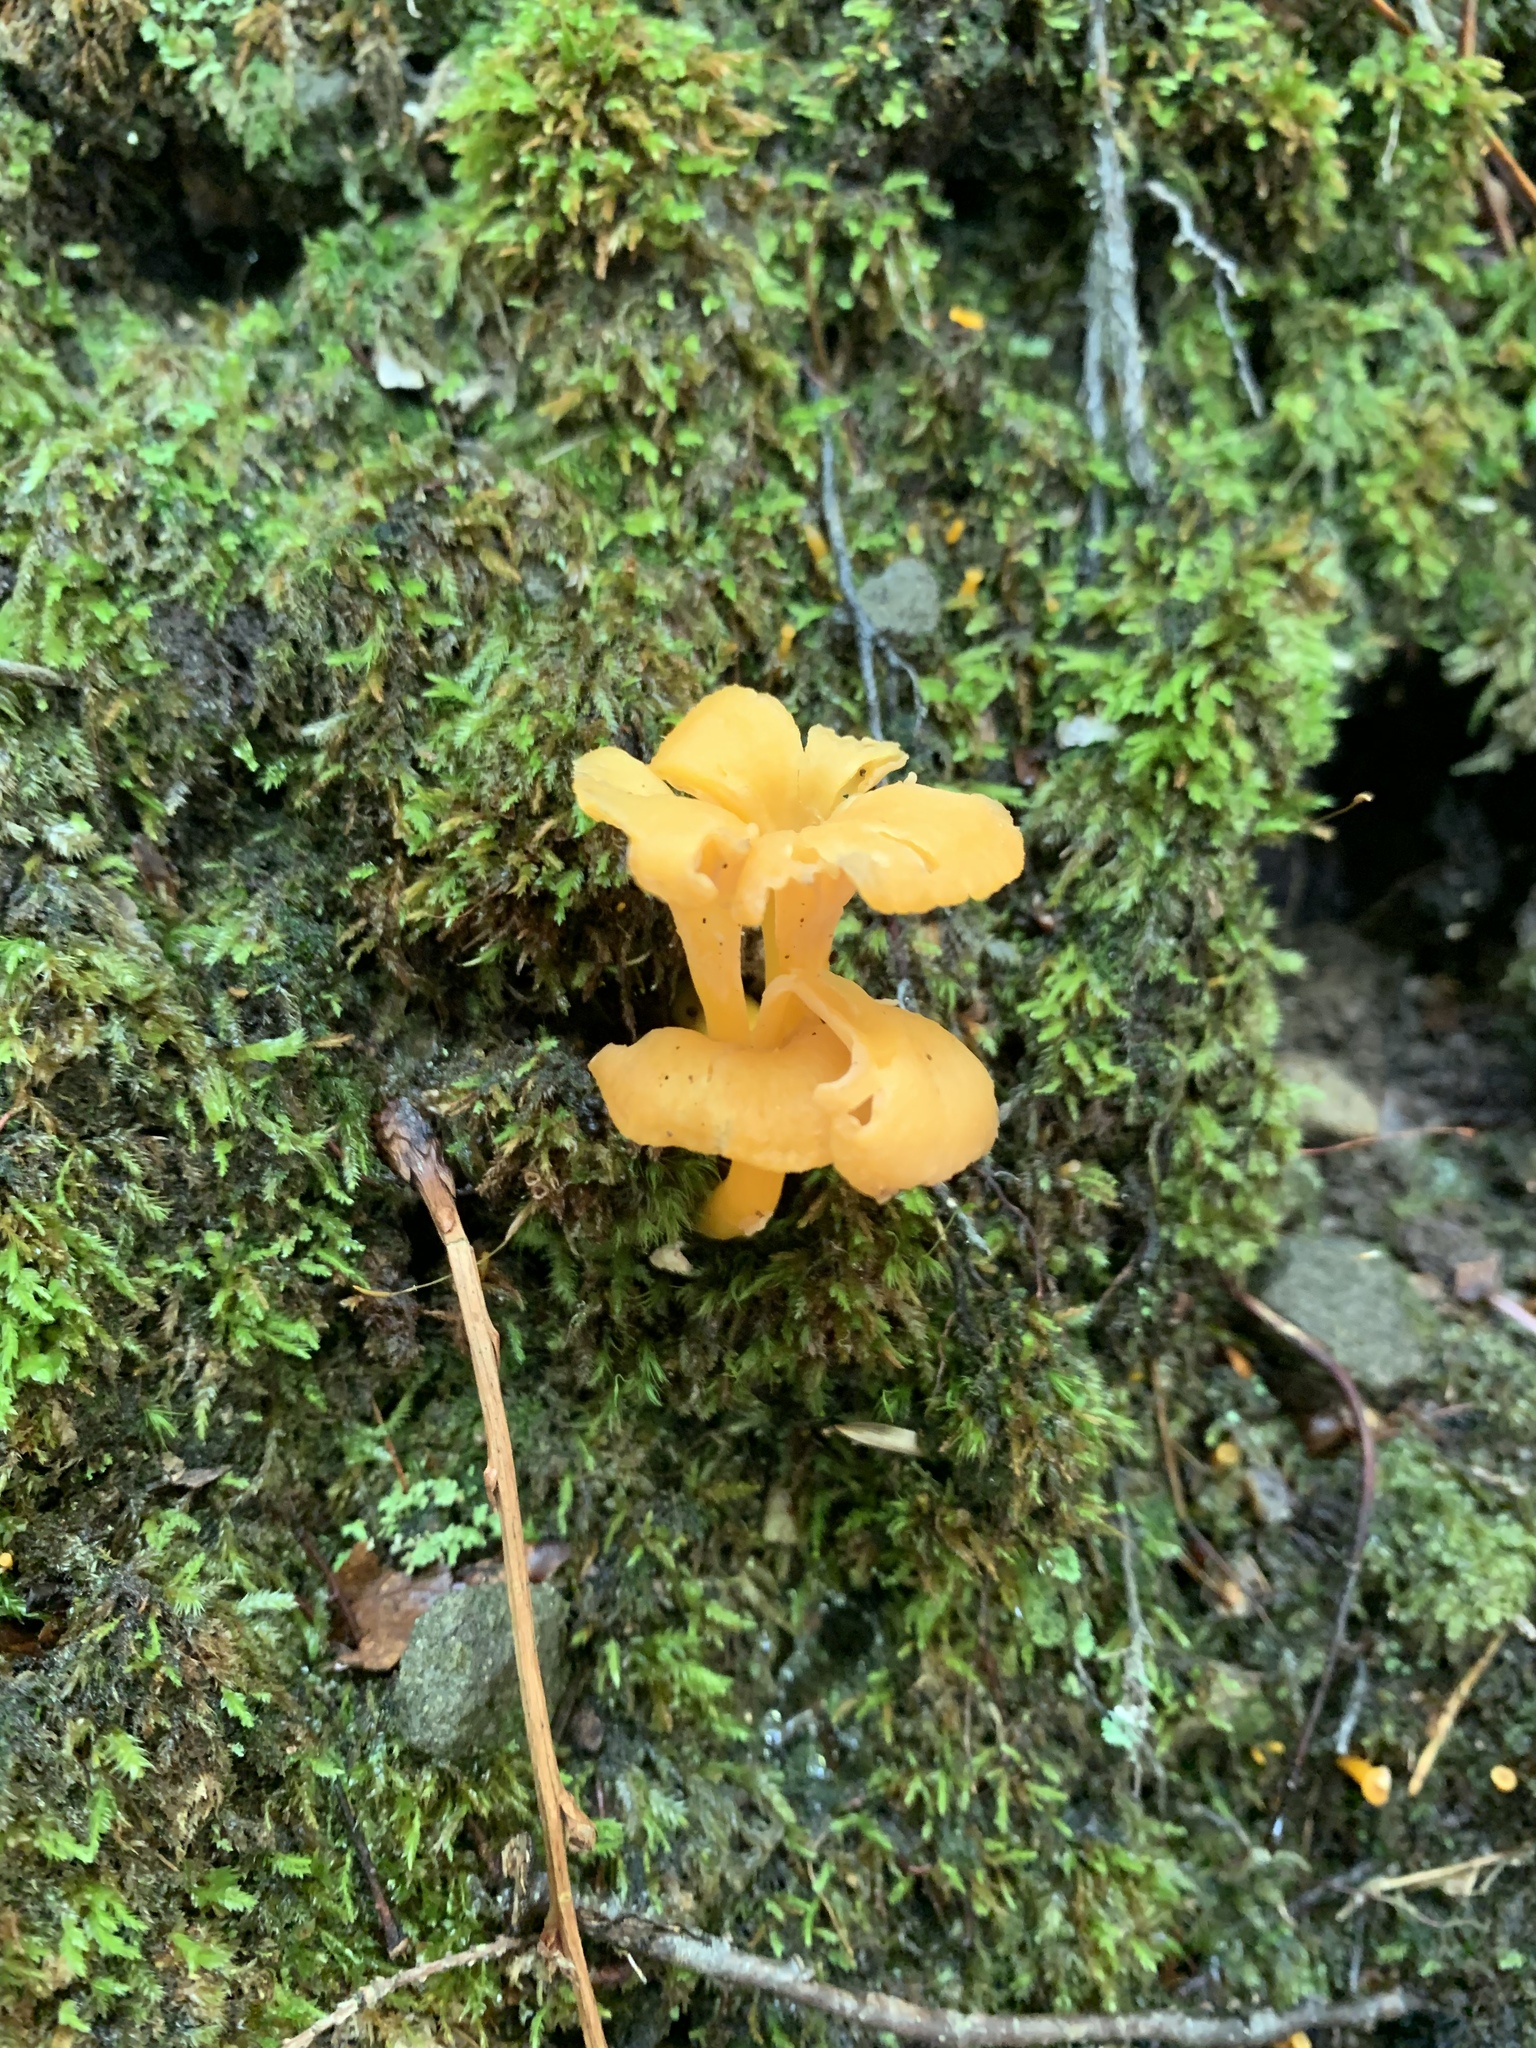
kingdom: Fungi
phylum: Basidiomycota
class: Agaricomycetes
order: Cantharellales
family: Hydnaceae
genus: Cantharellus
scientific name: Cantharellus minor
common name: Small chanterelle
